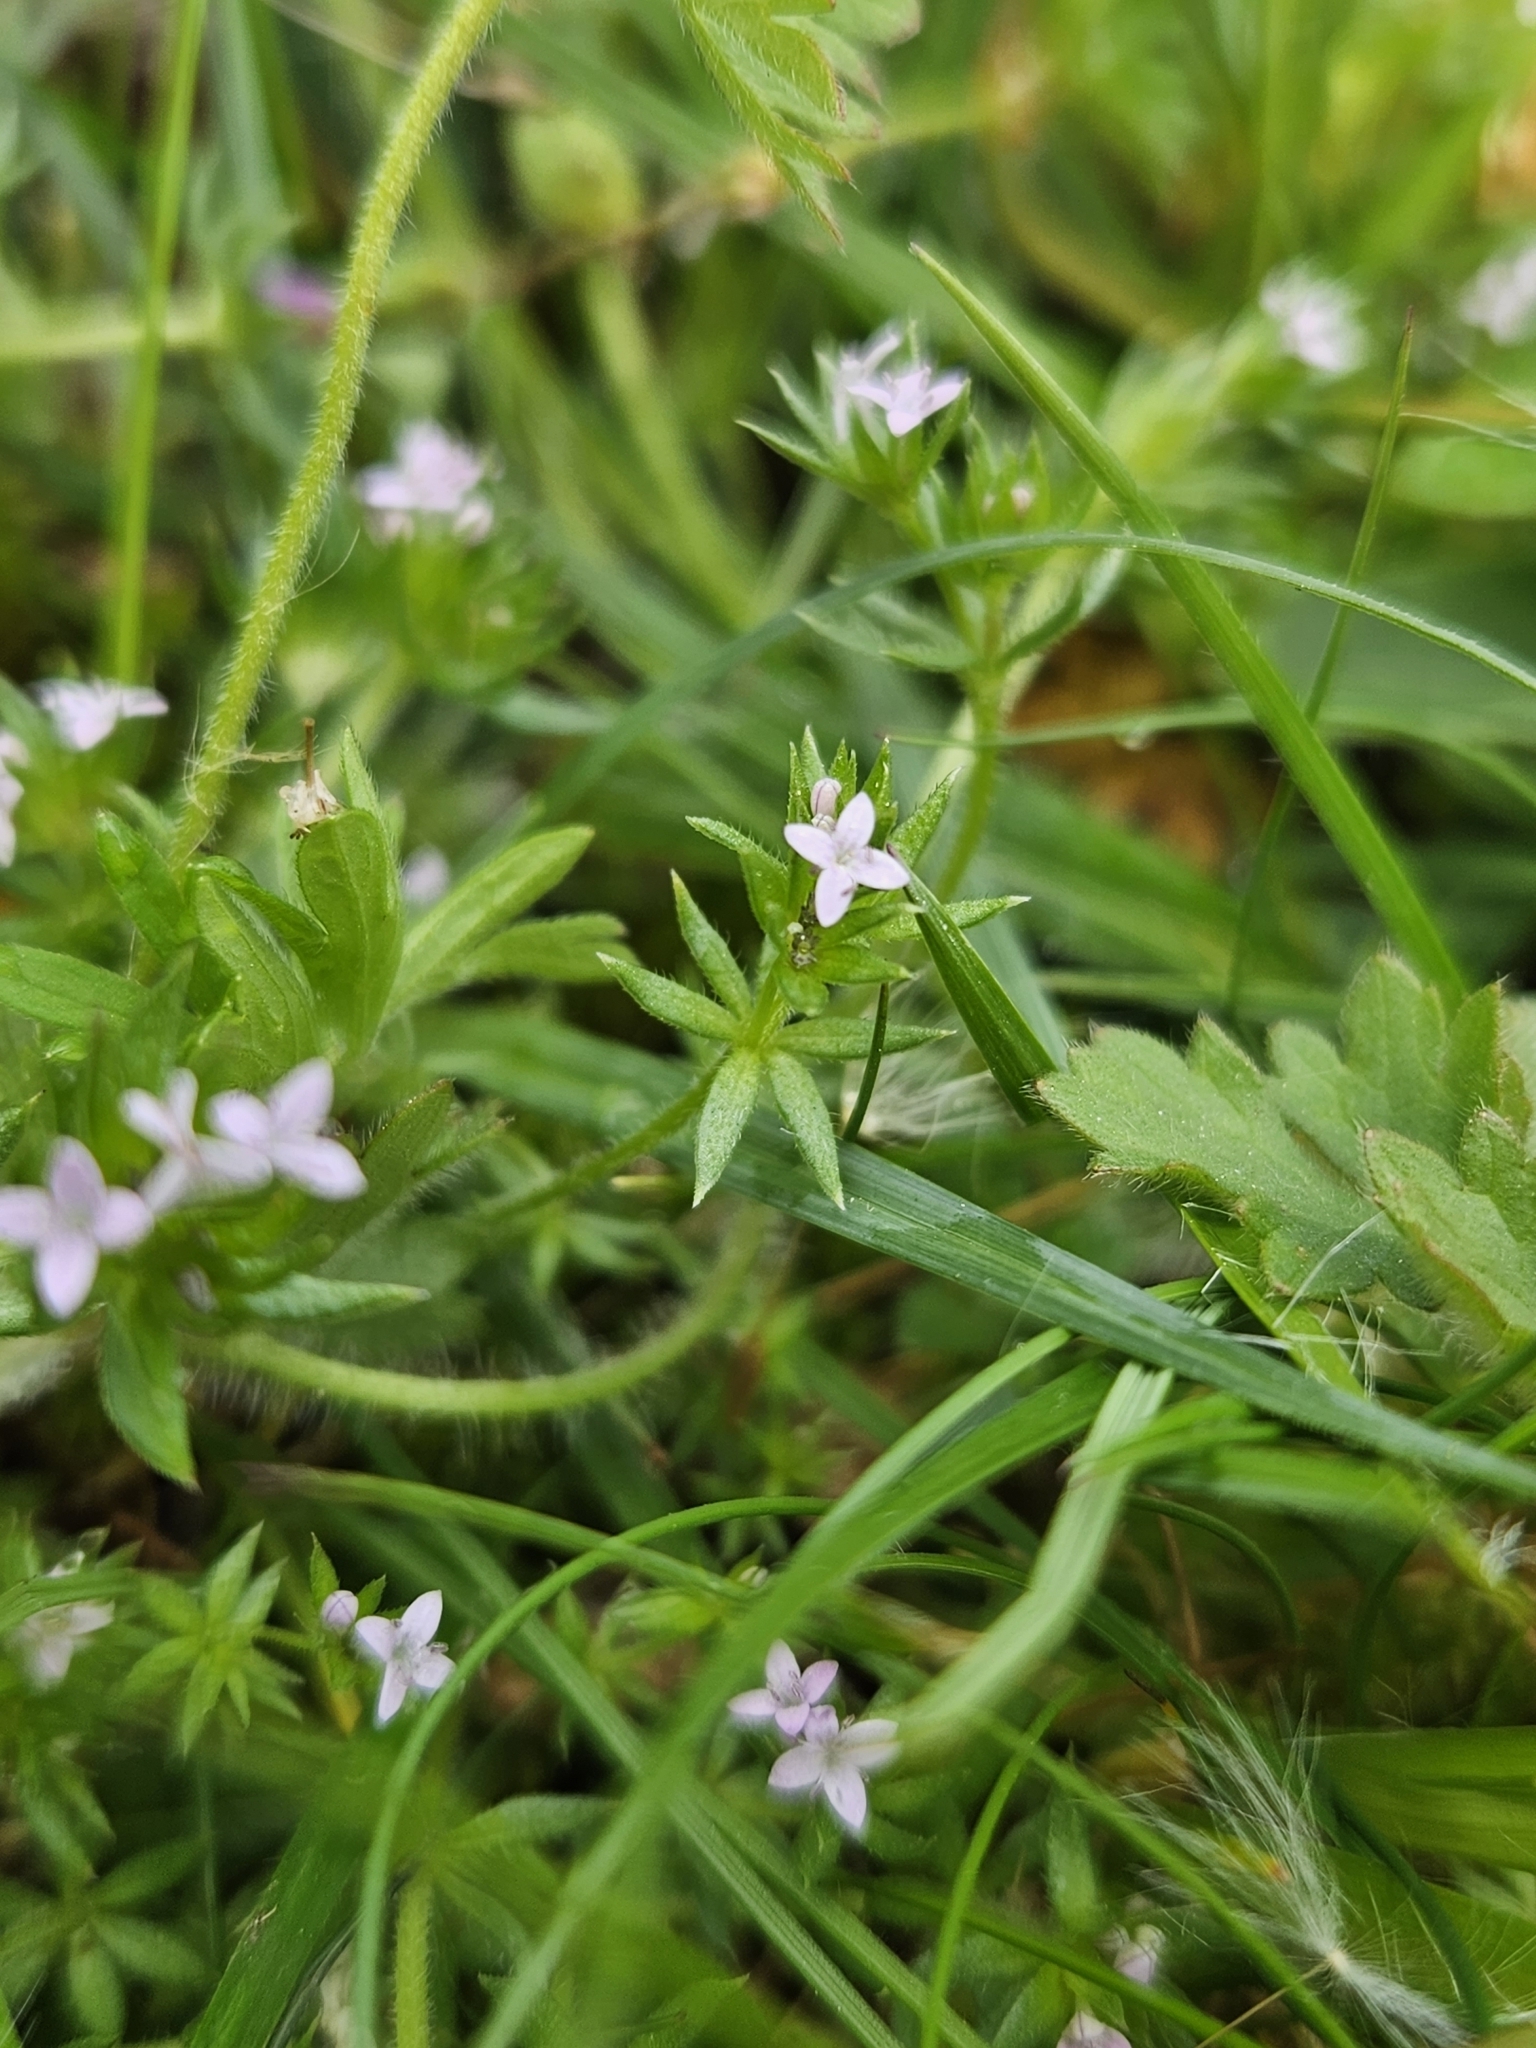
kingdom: Plantae
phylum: Tracheophyta
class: Magnoliopsida
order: Gentianales
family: Rubiaceae
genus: Sherardia
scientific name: Sherardia arvensis
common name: Field madder
